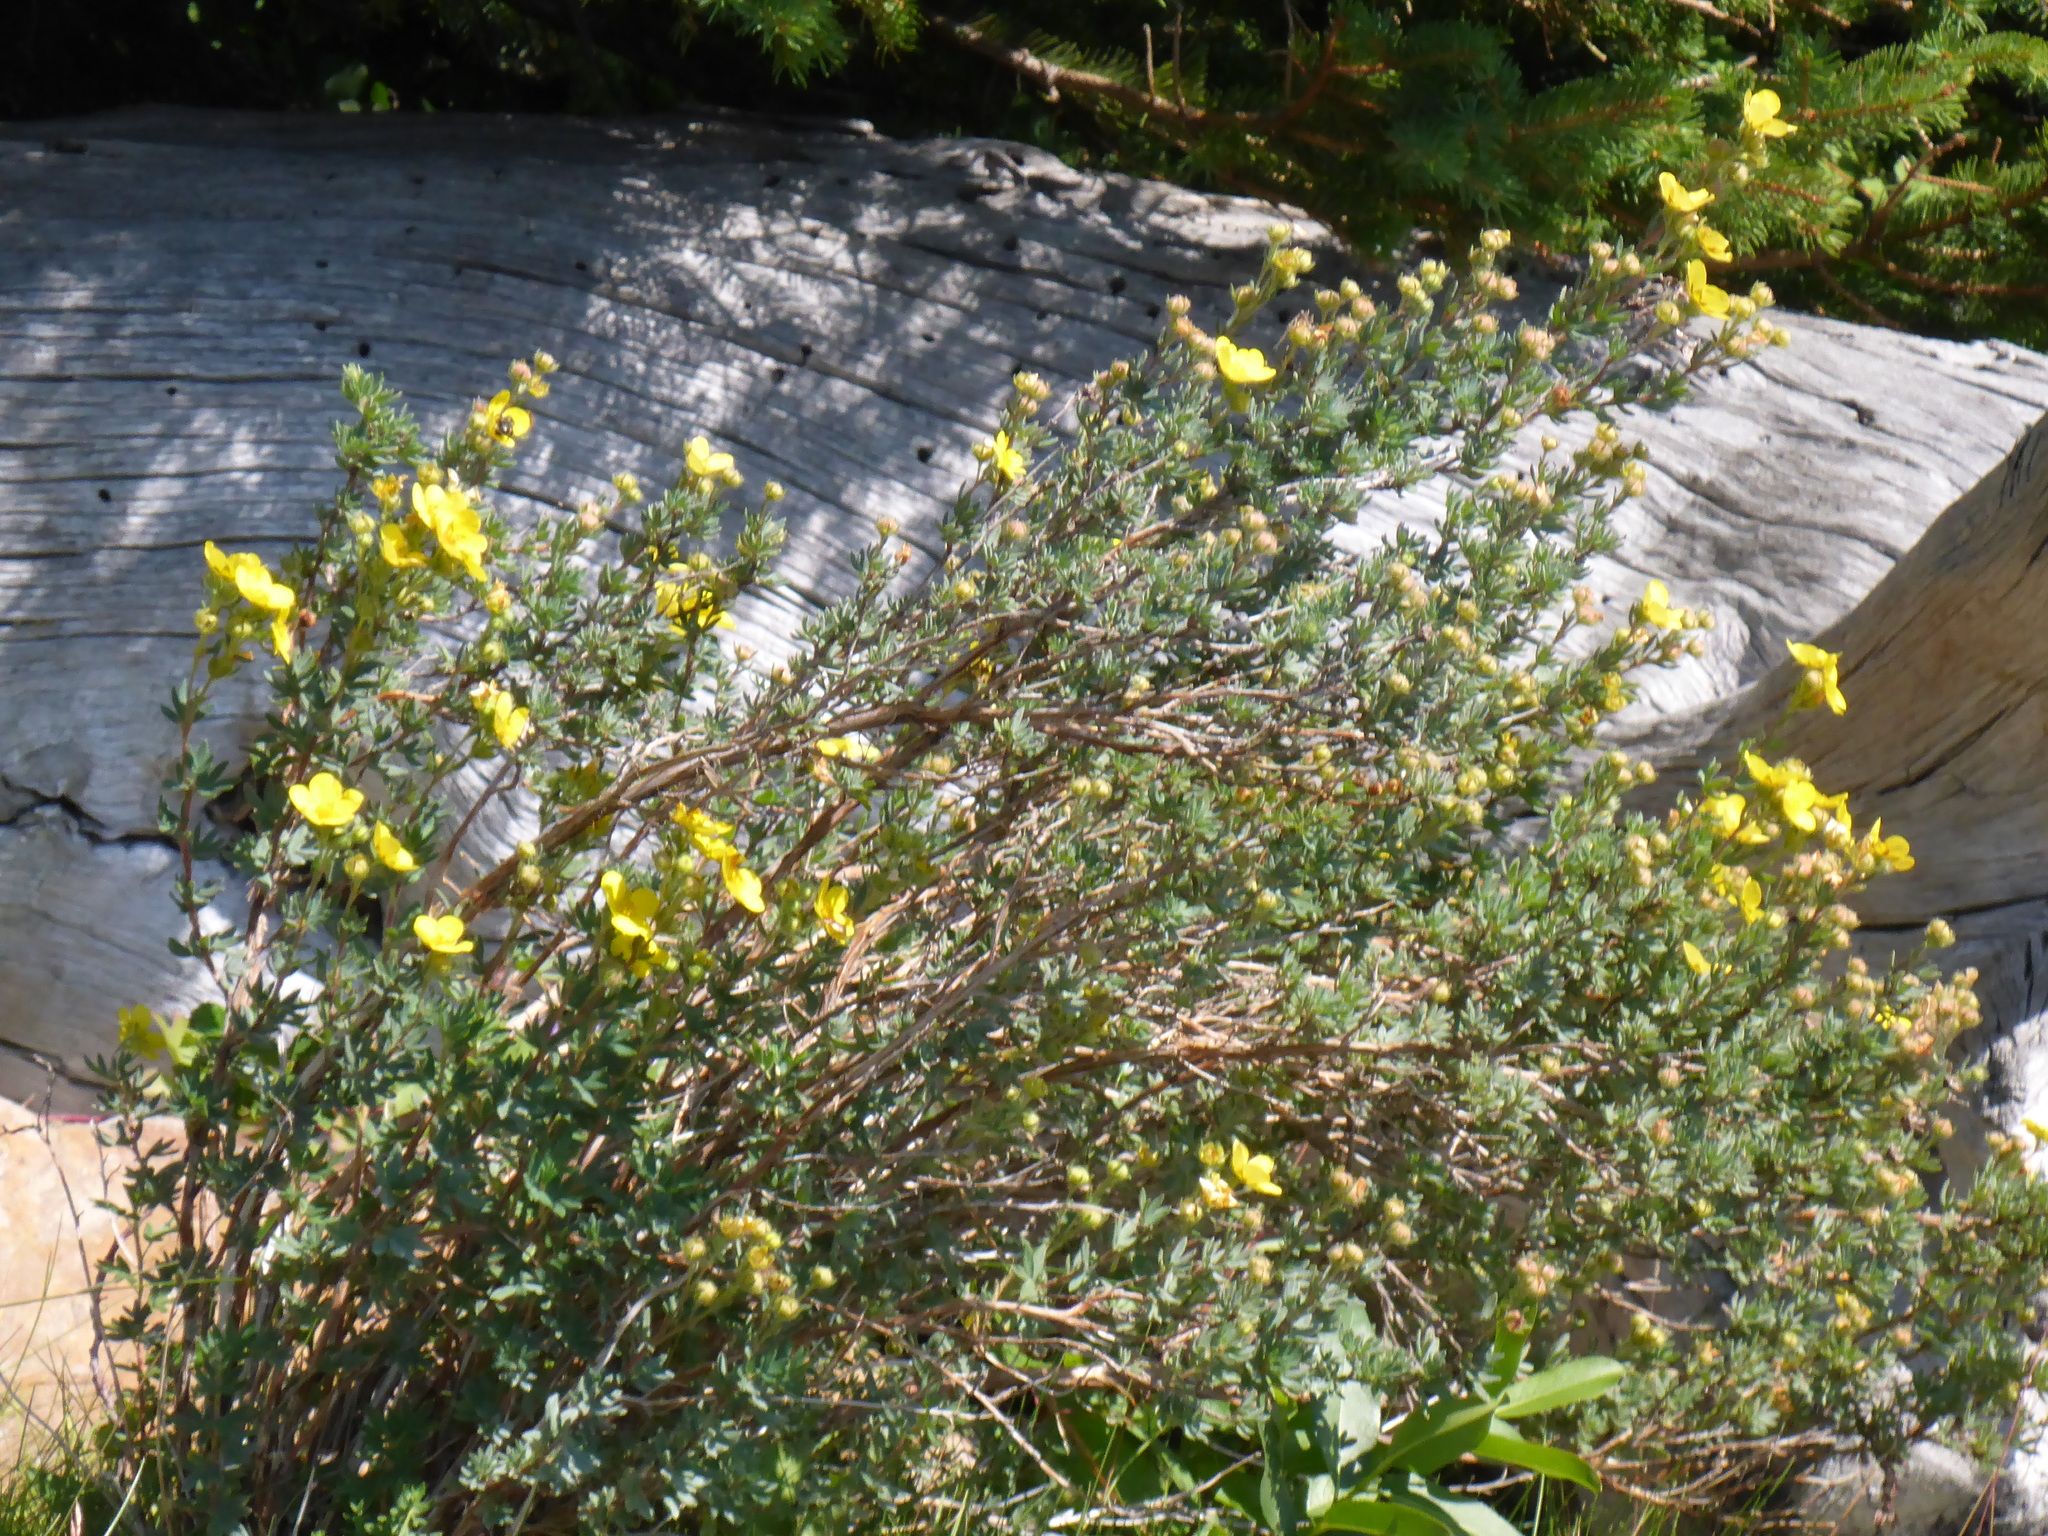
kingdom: Plantae
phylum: Tracheophyta
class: Magnoliopsida
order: Rosales
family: Rosaceae
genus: Dasiphora
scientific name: Dasiphora fruticosa
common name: Shrubby cinquefoil
